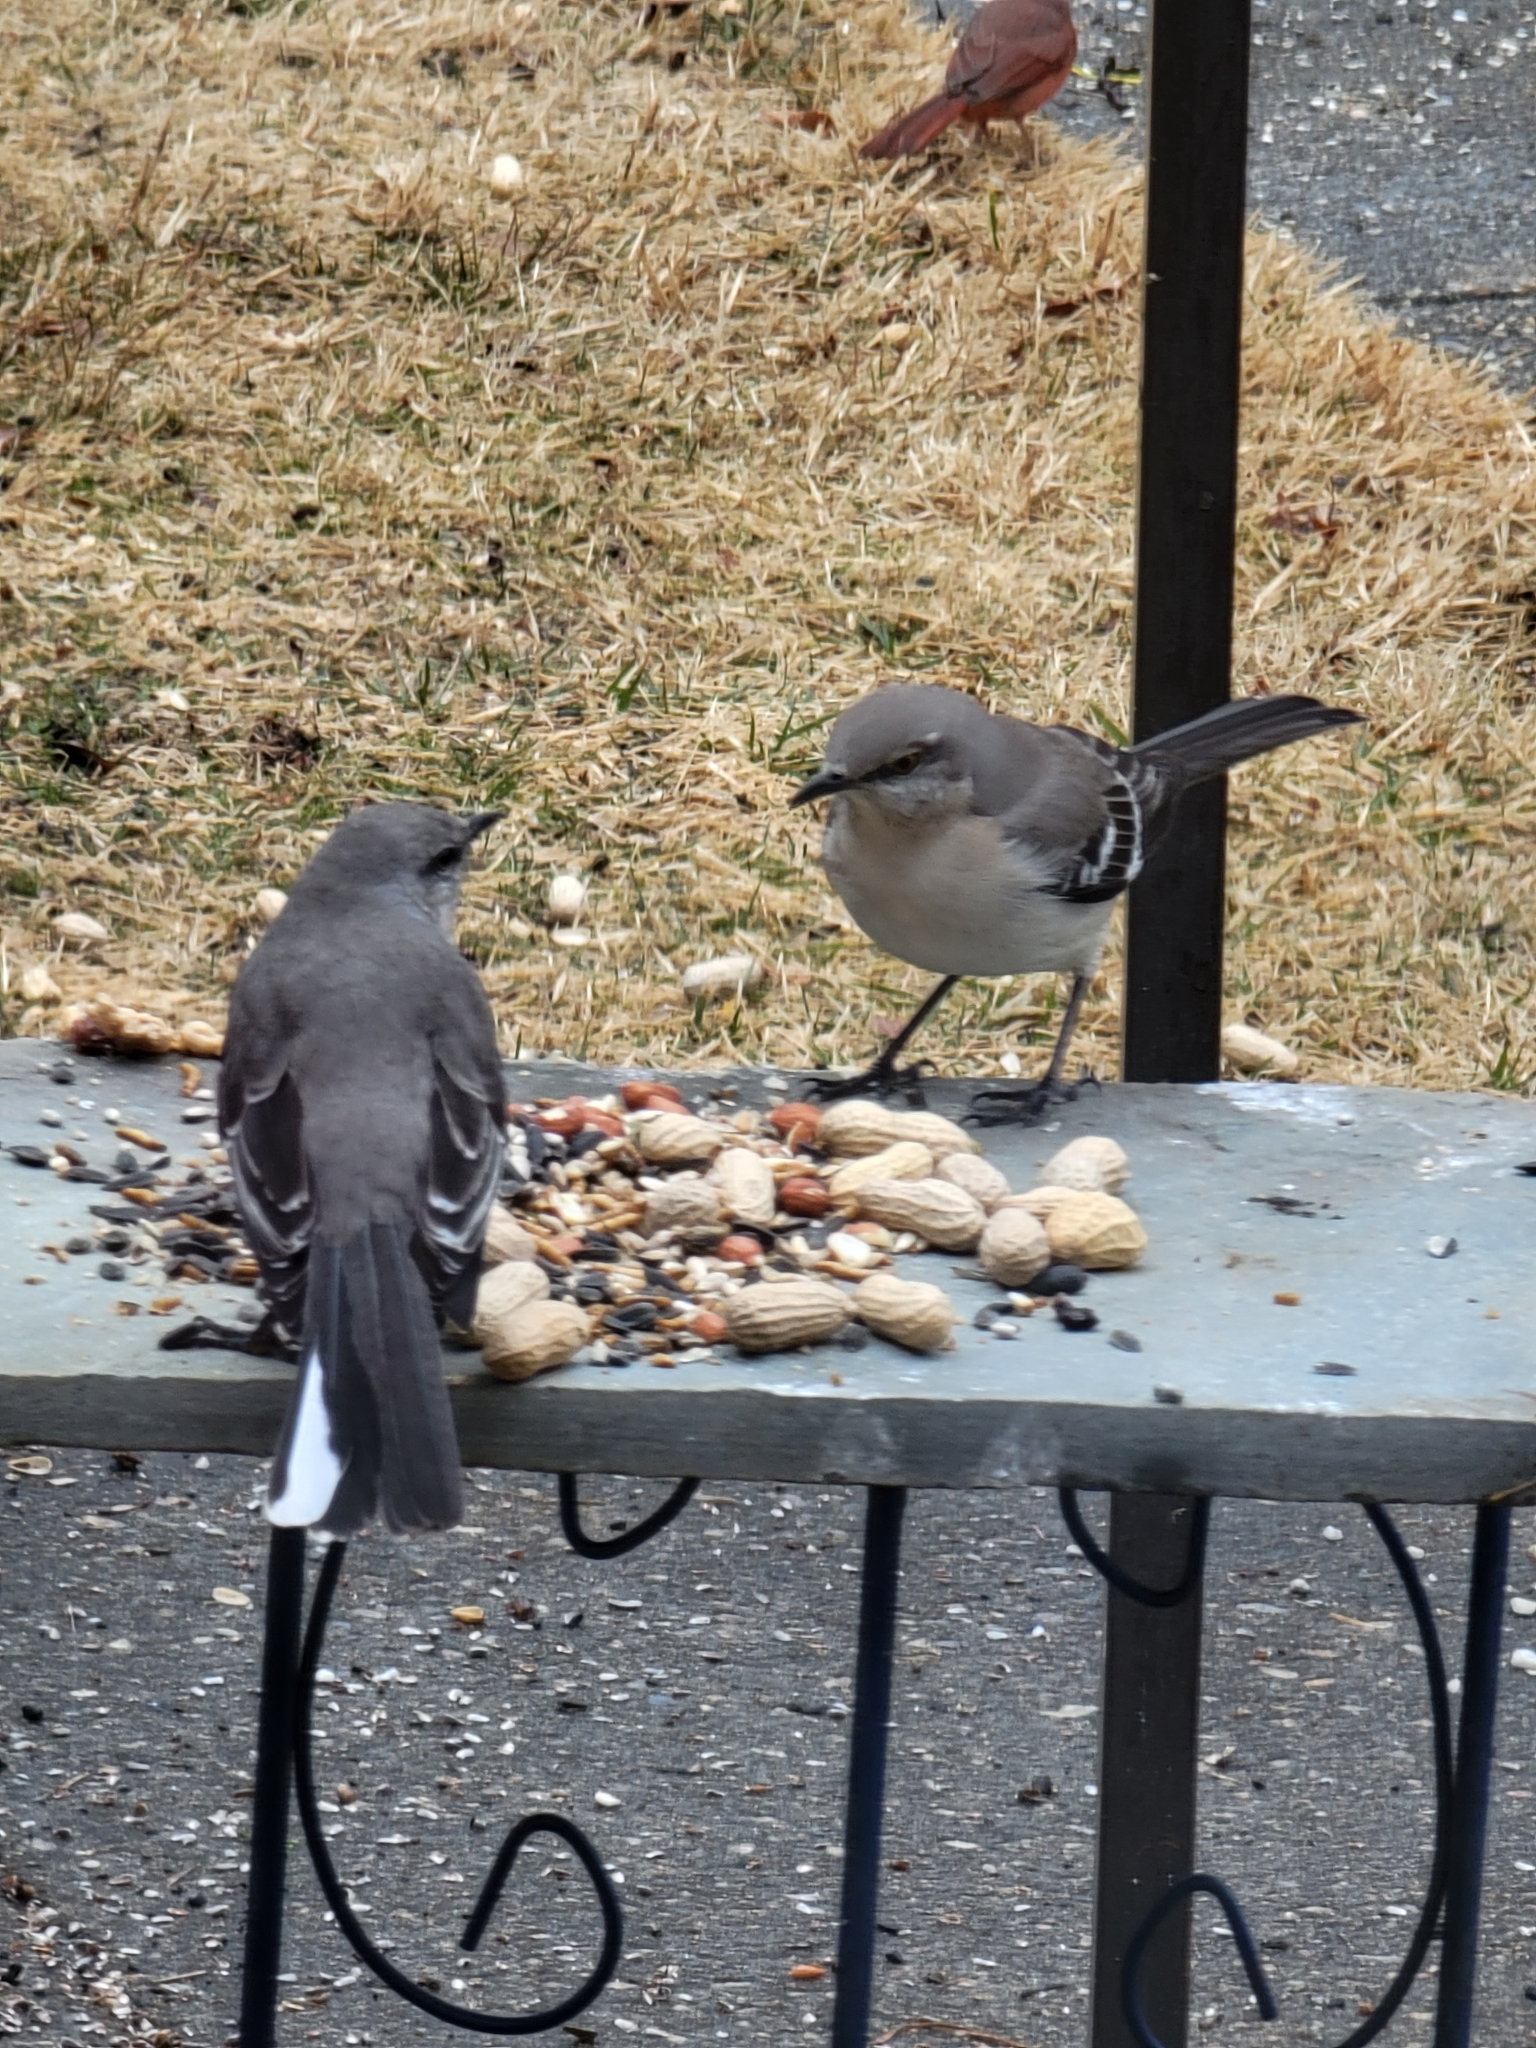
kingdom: Animalia
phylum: Chordata
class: Aves
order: Passeriformes
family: Mimidae
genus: Mimus
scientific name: Mimus polyglottos
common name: Northern mockingbird
